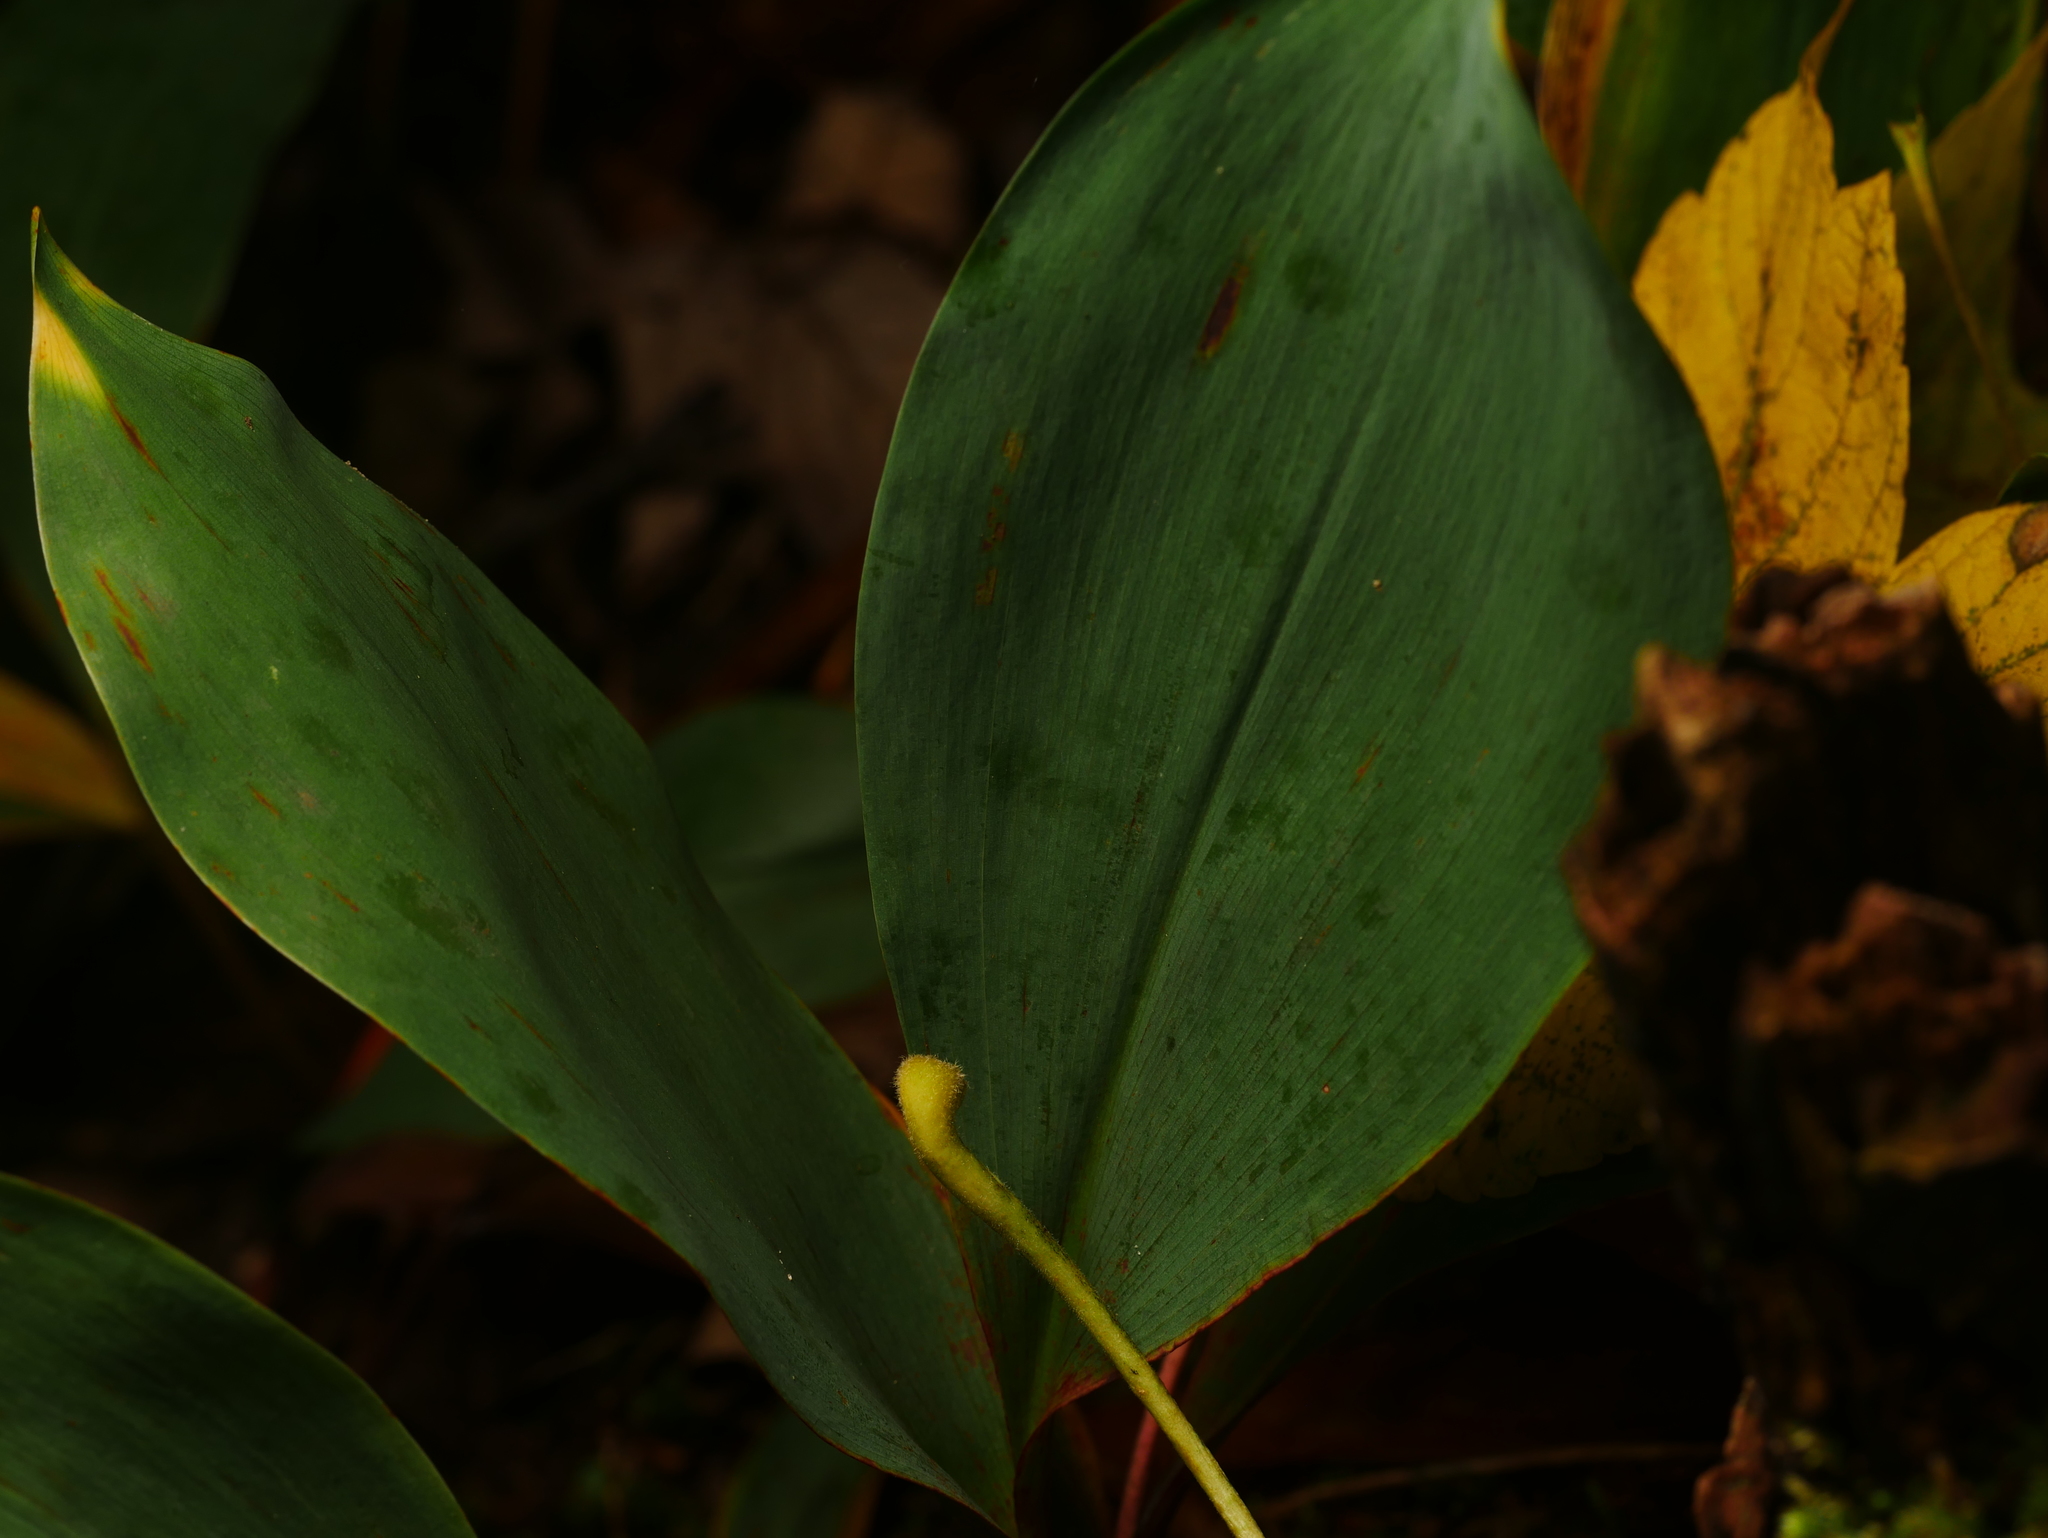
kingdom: Plantae
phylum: Tracheophyta
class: Liliopsida
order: Asparagales
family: Asparagaceae
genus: Convallaria
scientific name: Convallaria majalis
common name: Lily-of-the-valley
